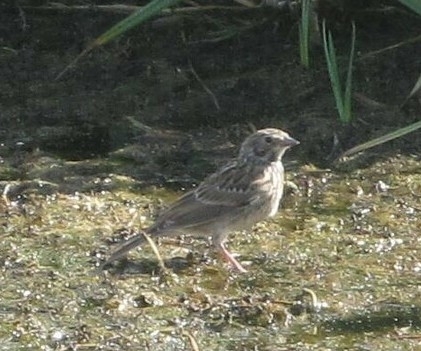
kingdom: Animalia
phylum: Chordata
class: Aves
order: Passeriformes
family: Passerellidae
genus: Passerculus
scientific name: Passerculus sandwichensis
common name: Savannah sparrow
